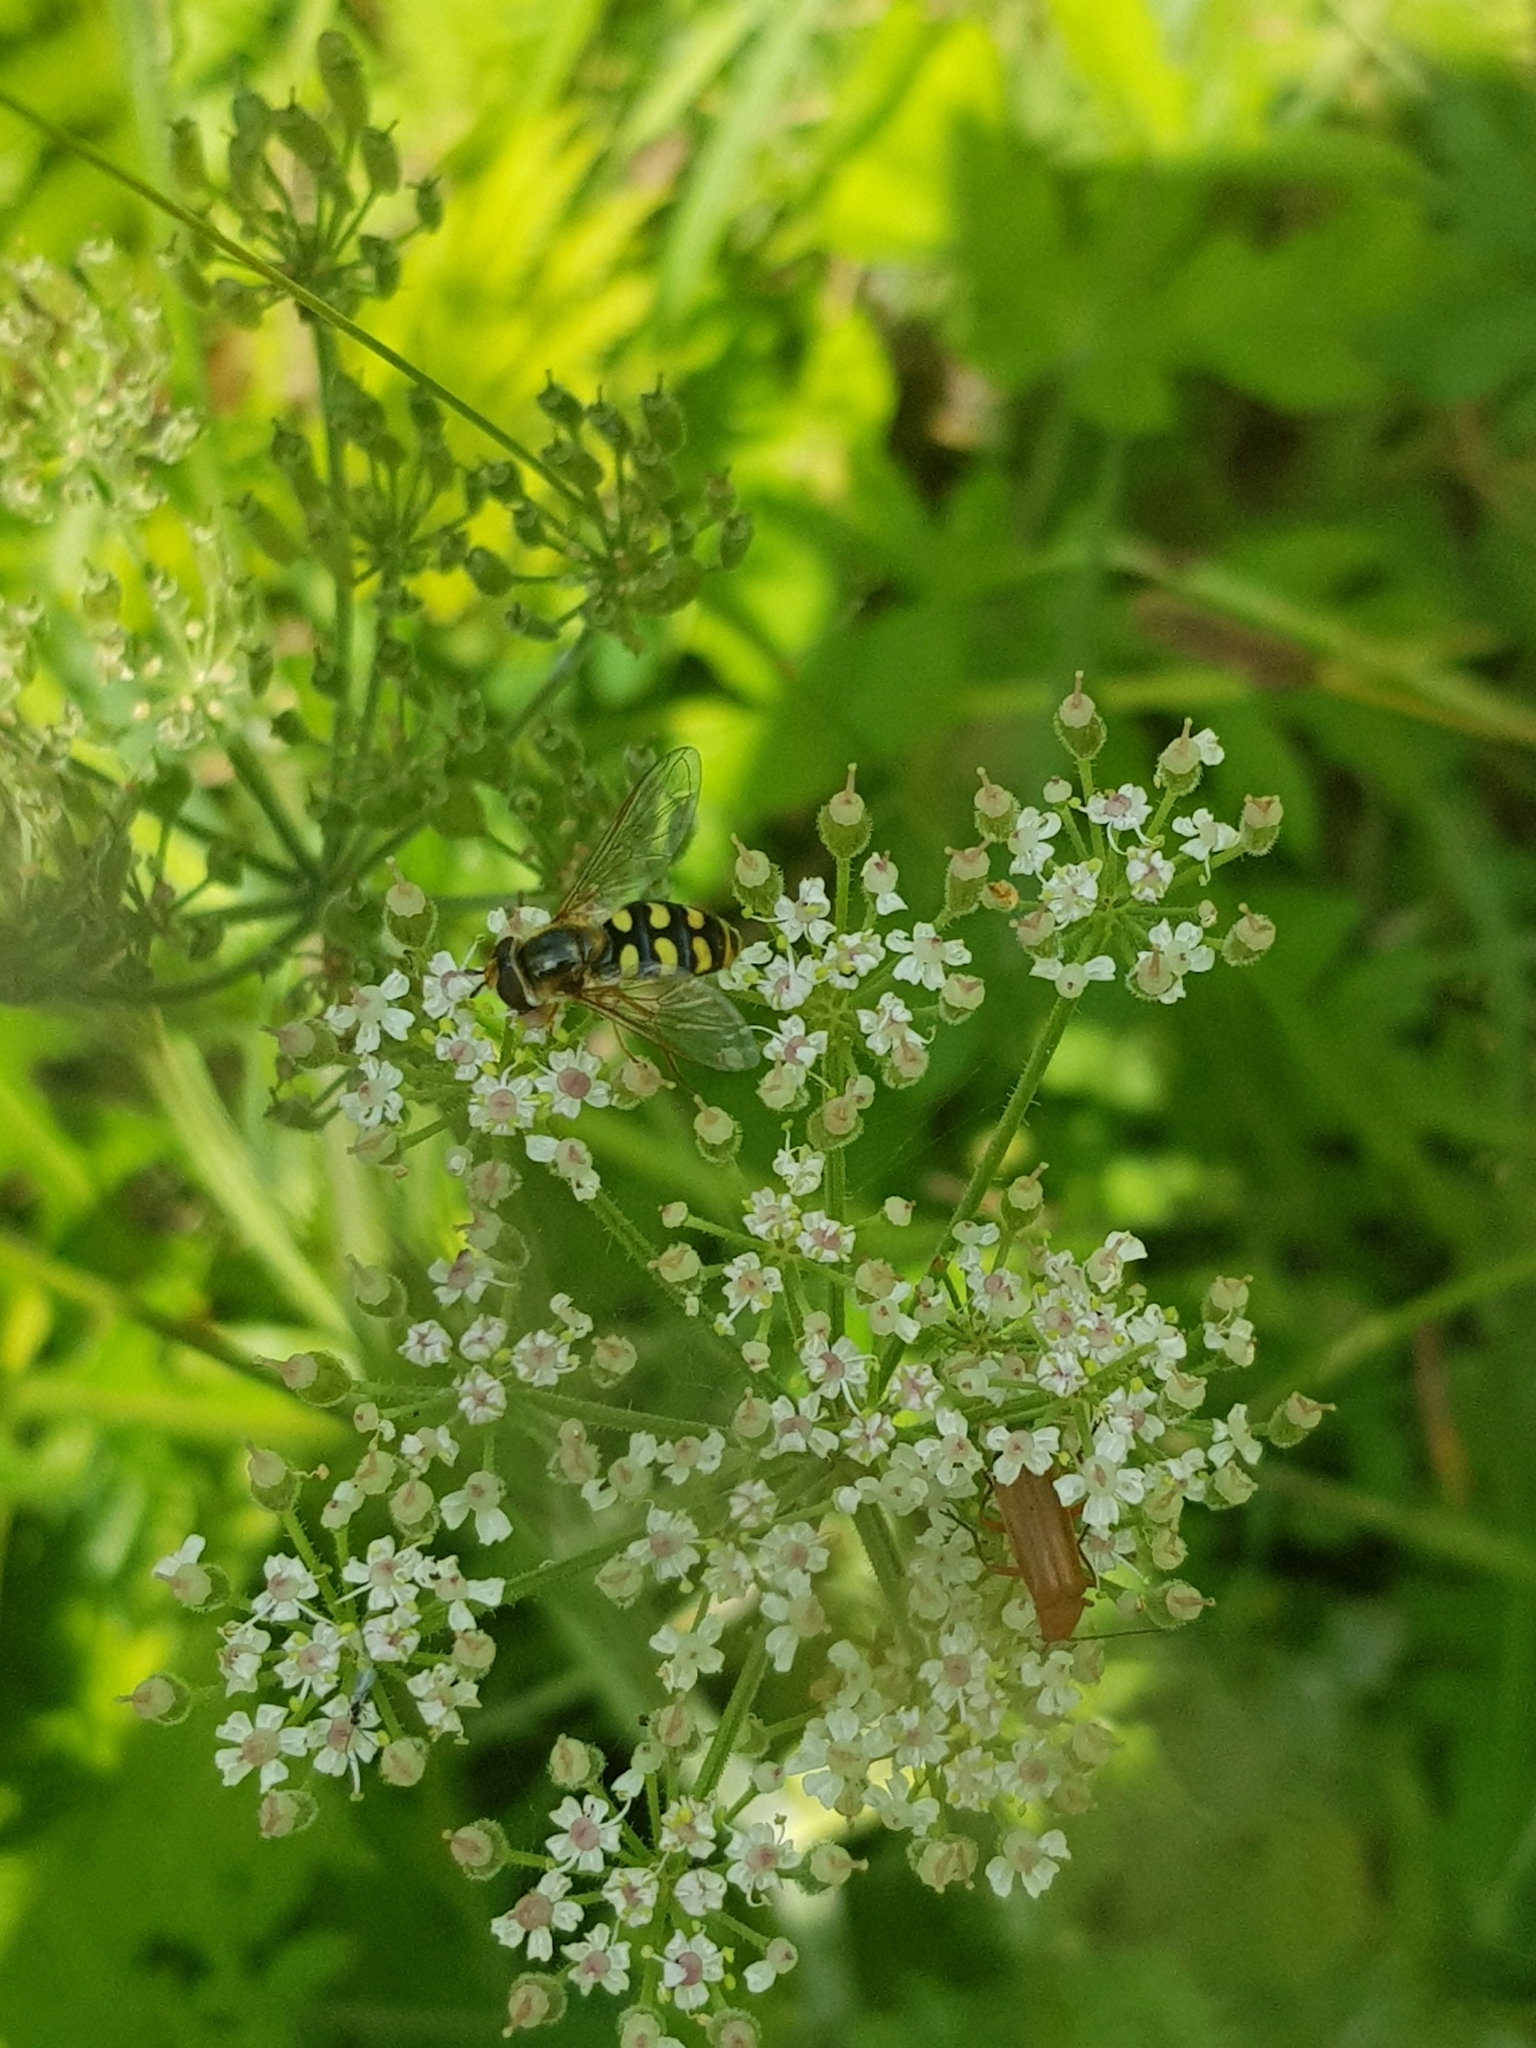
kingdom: Animalia
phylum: Arthropoda
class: Insecta
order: Diptera
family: Syrphidae
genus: Eupeodes
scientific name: Eupeodes
